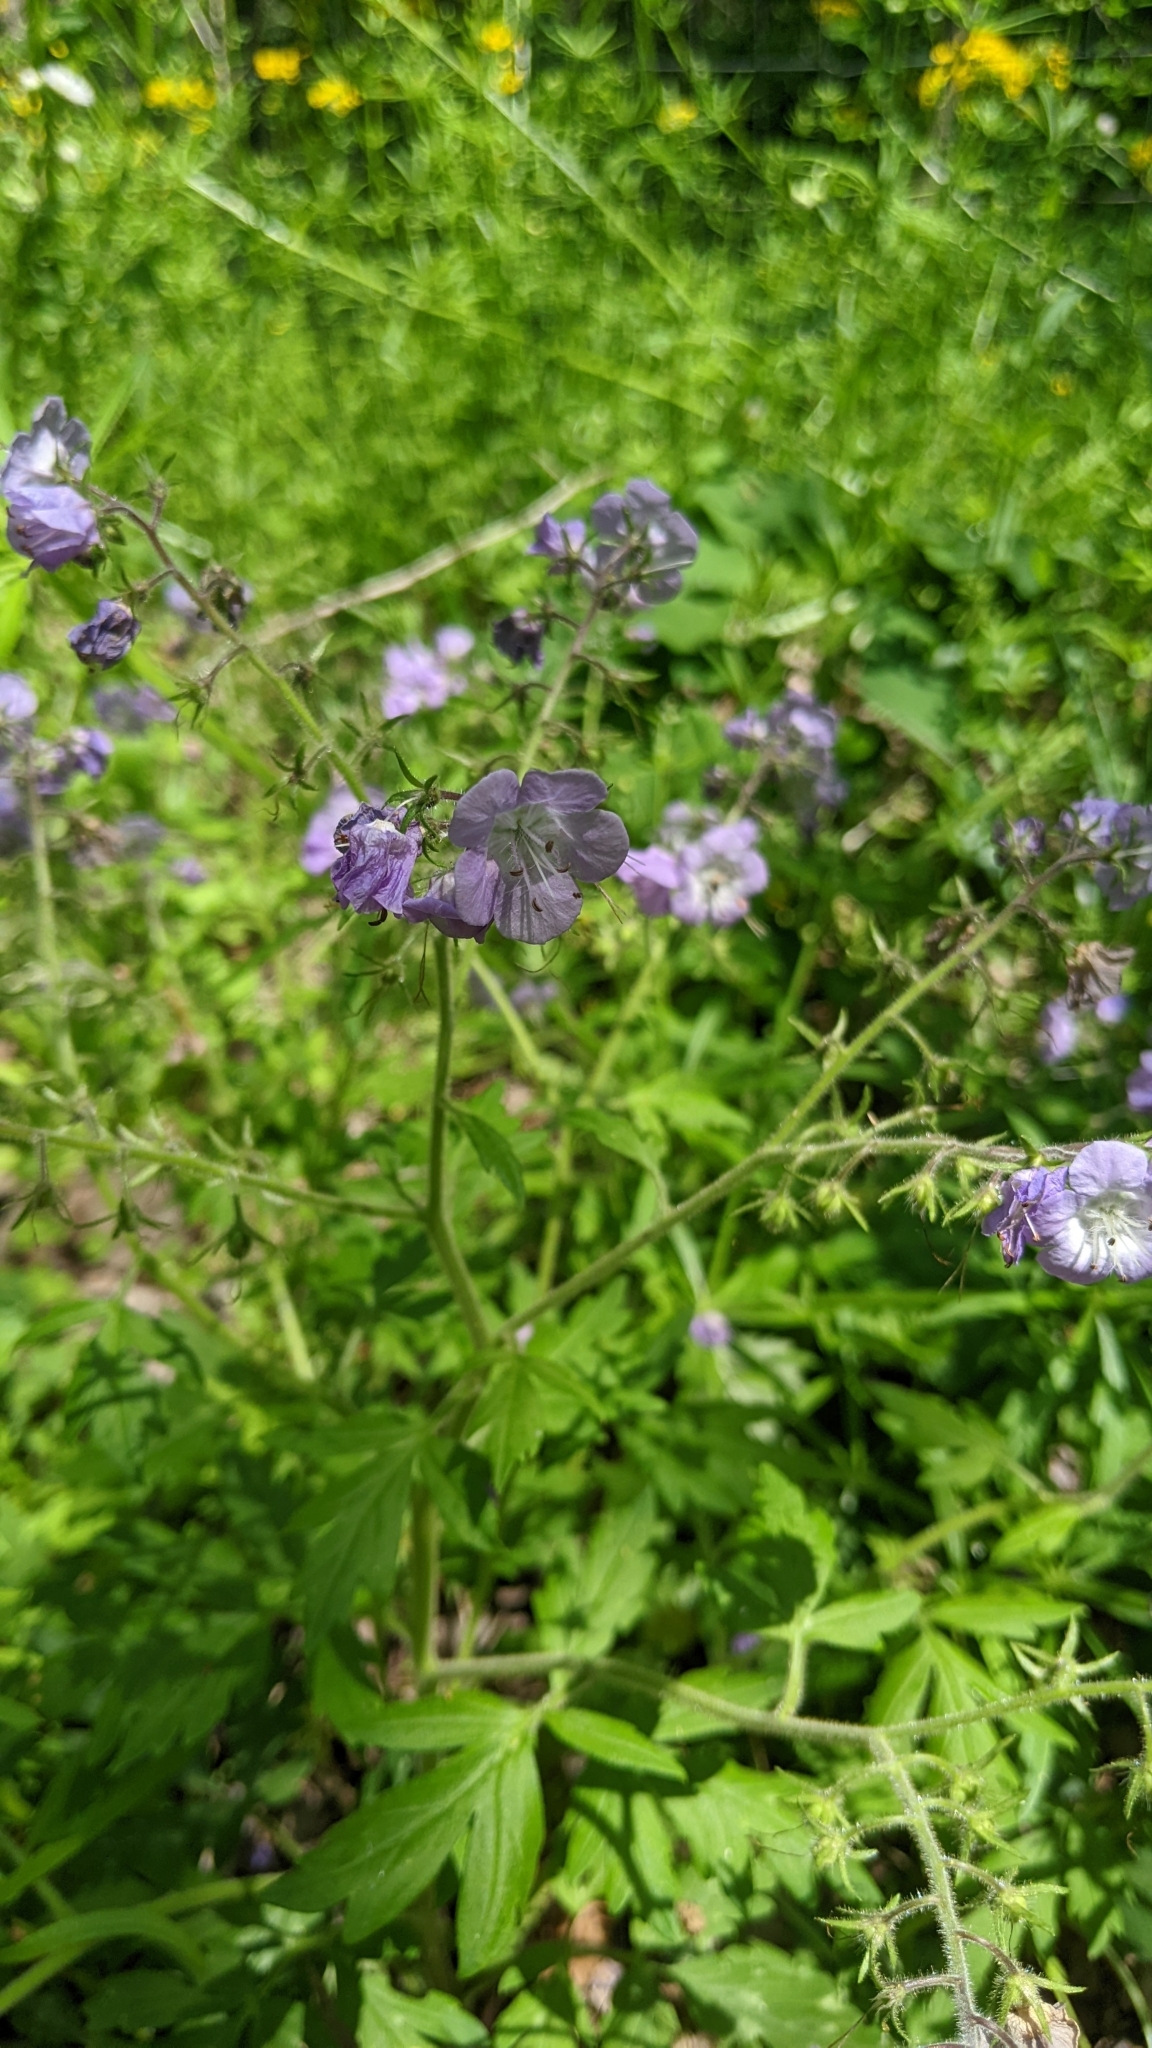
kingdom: Plantae
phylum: Tracheophyta
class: Magnoliopsida
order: Boraginales
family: Hydrophyllaceae
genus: Phacelia
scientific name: Phacelia bipinnatifida
